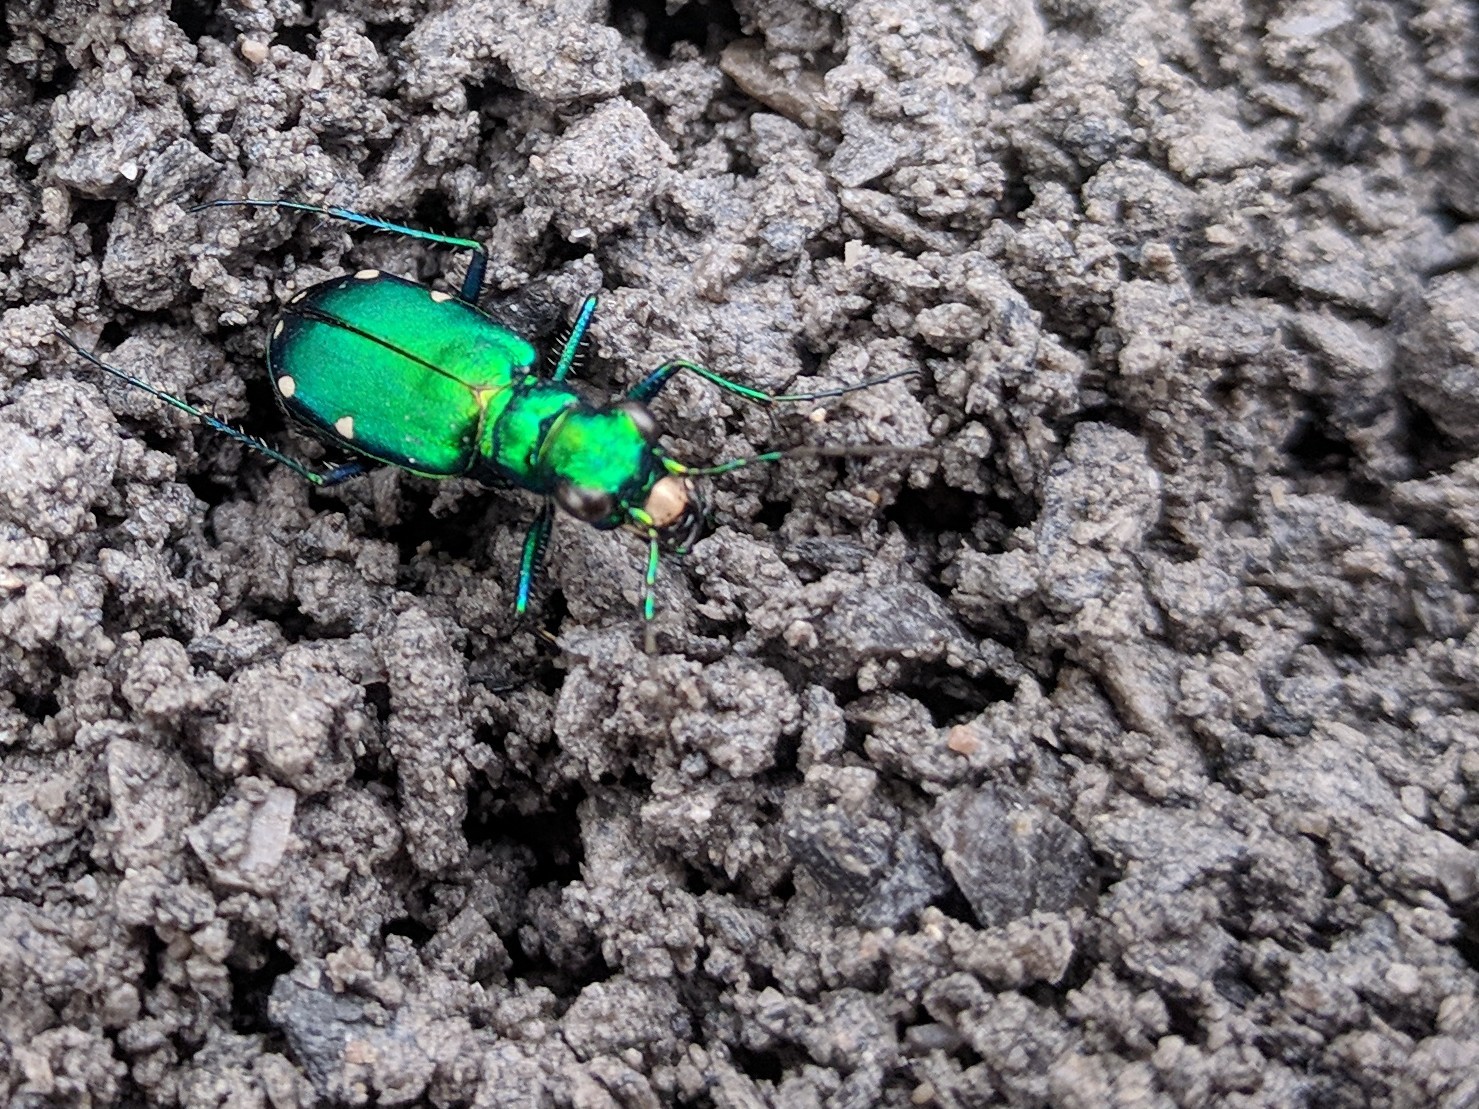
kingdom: Animalia
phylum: Arthropoda
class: Insecta
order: Coleoptera
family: Carabidae
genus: Cicindela
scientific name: Cicindela sexguttata
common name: Six-spotted tiger beetle
